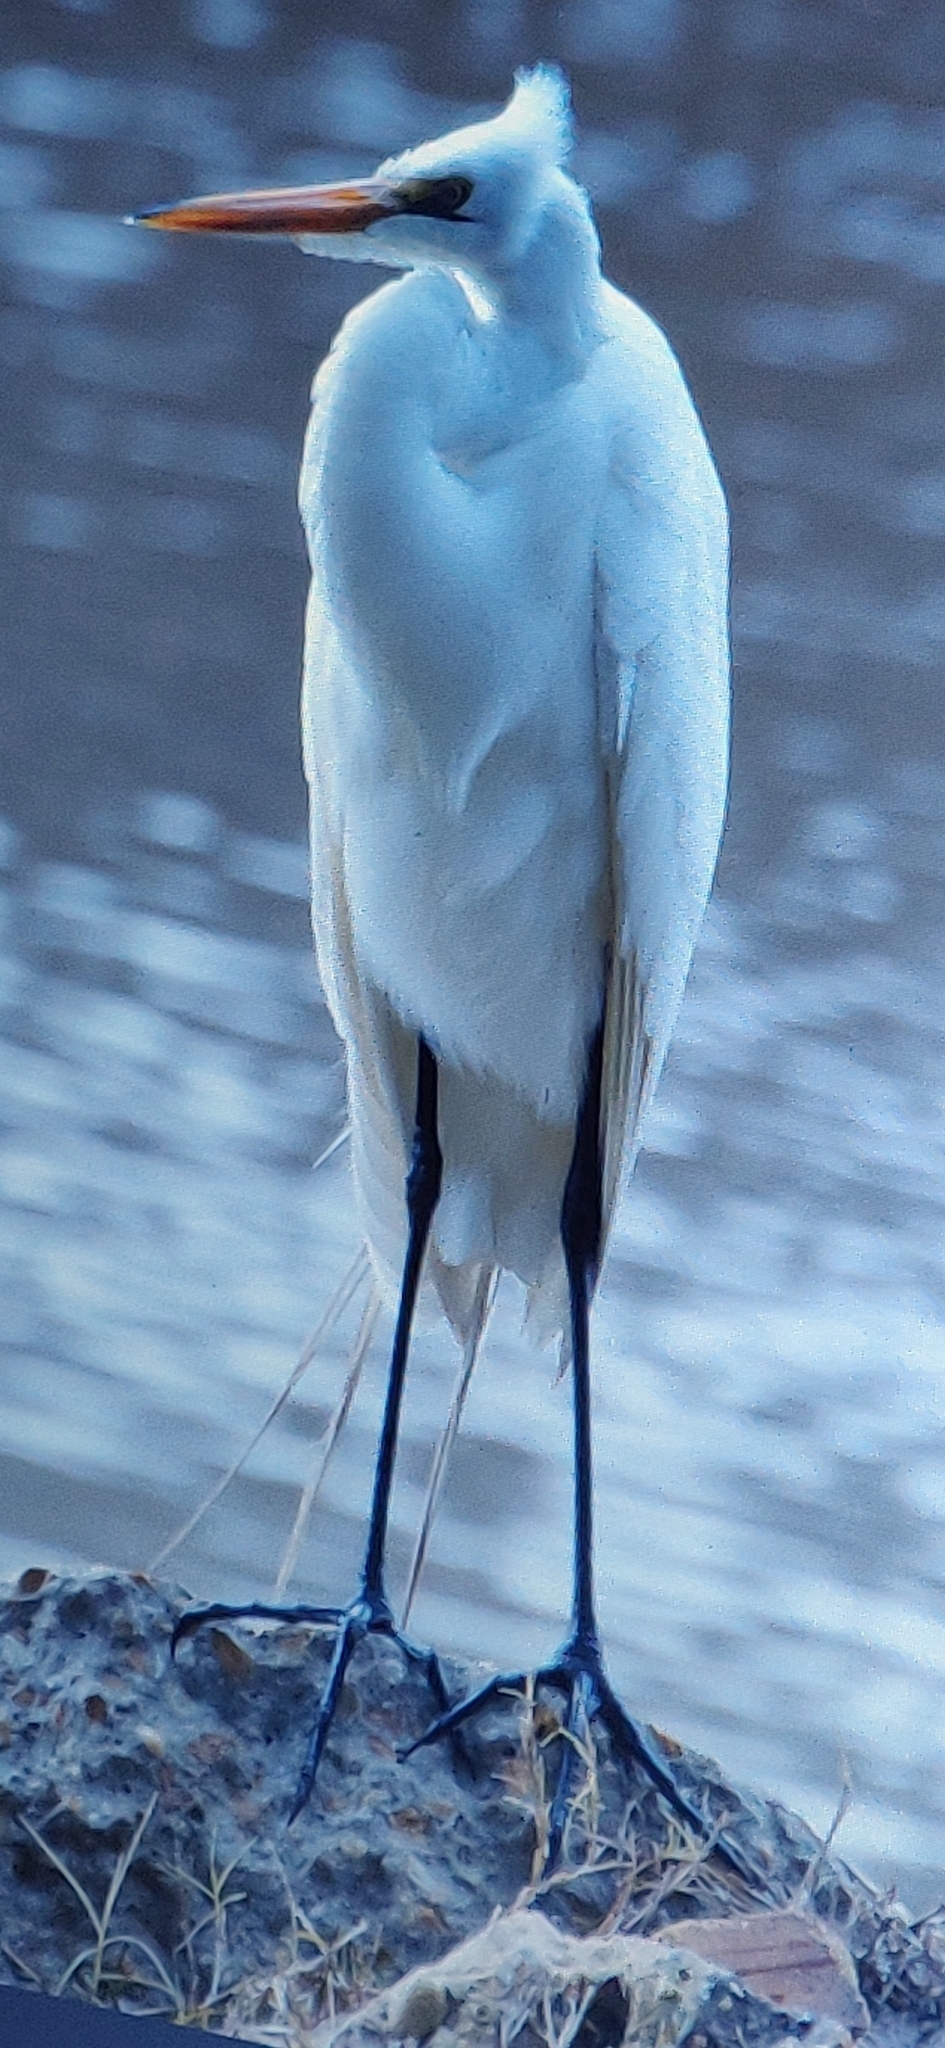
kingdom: Animalia
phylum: Chordata
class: Aves
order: Pelecaniformes
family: Ardeidae
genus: Ardea
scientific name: Ardea alba
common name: Great egret
